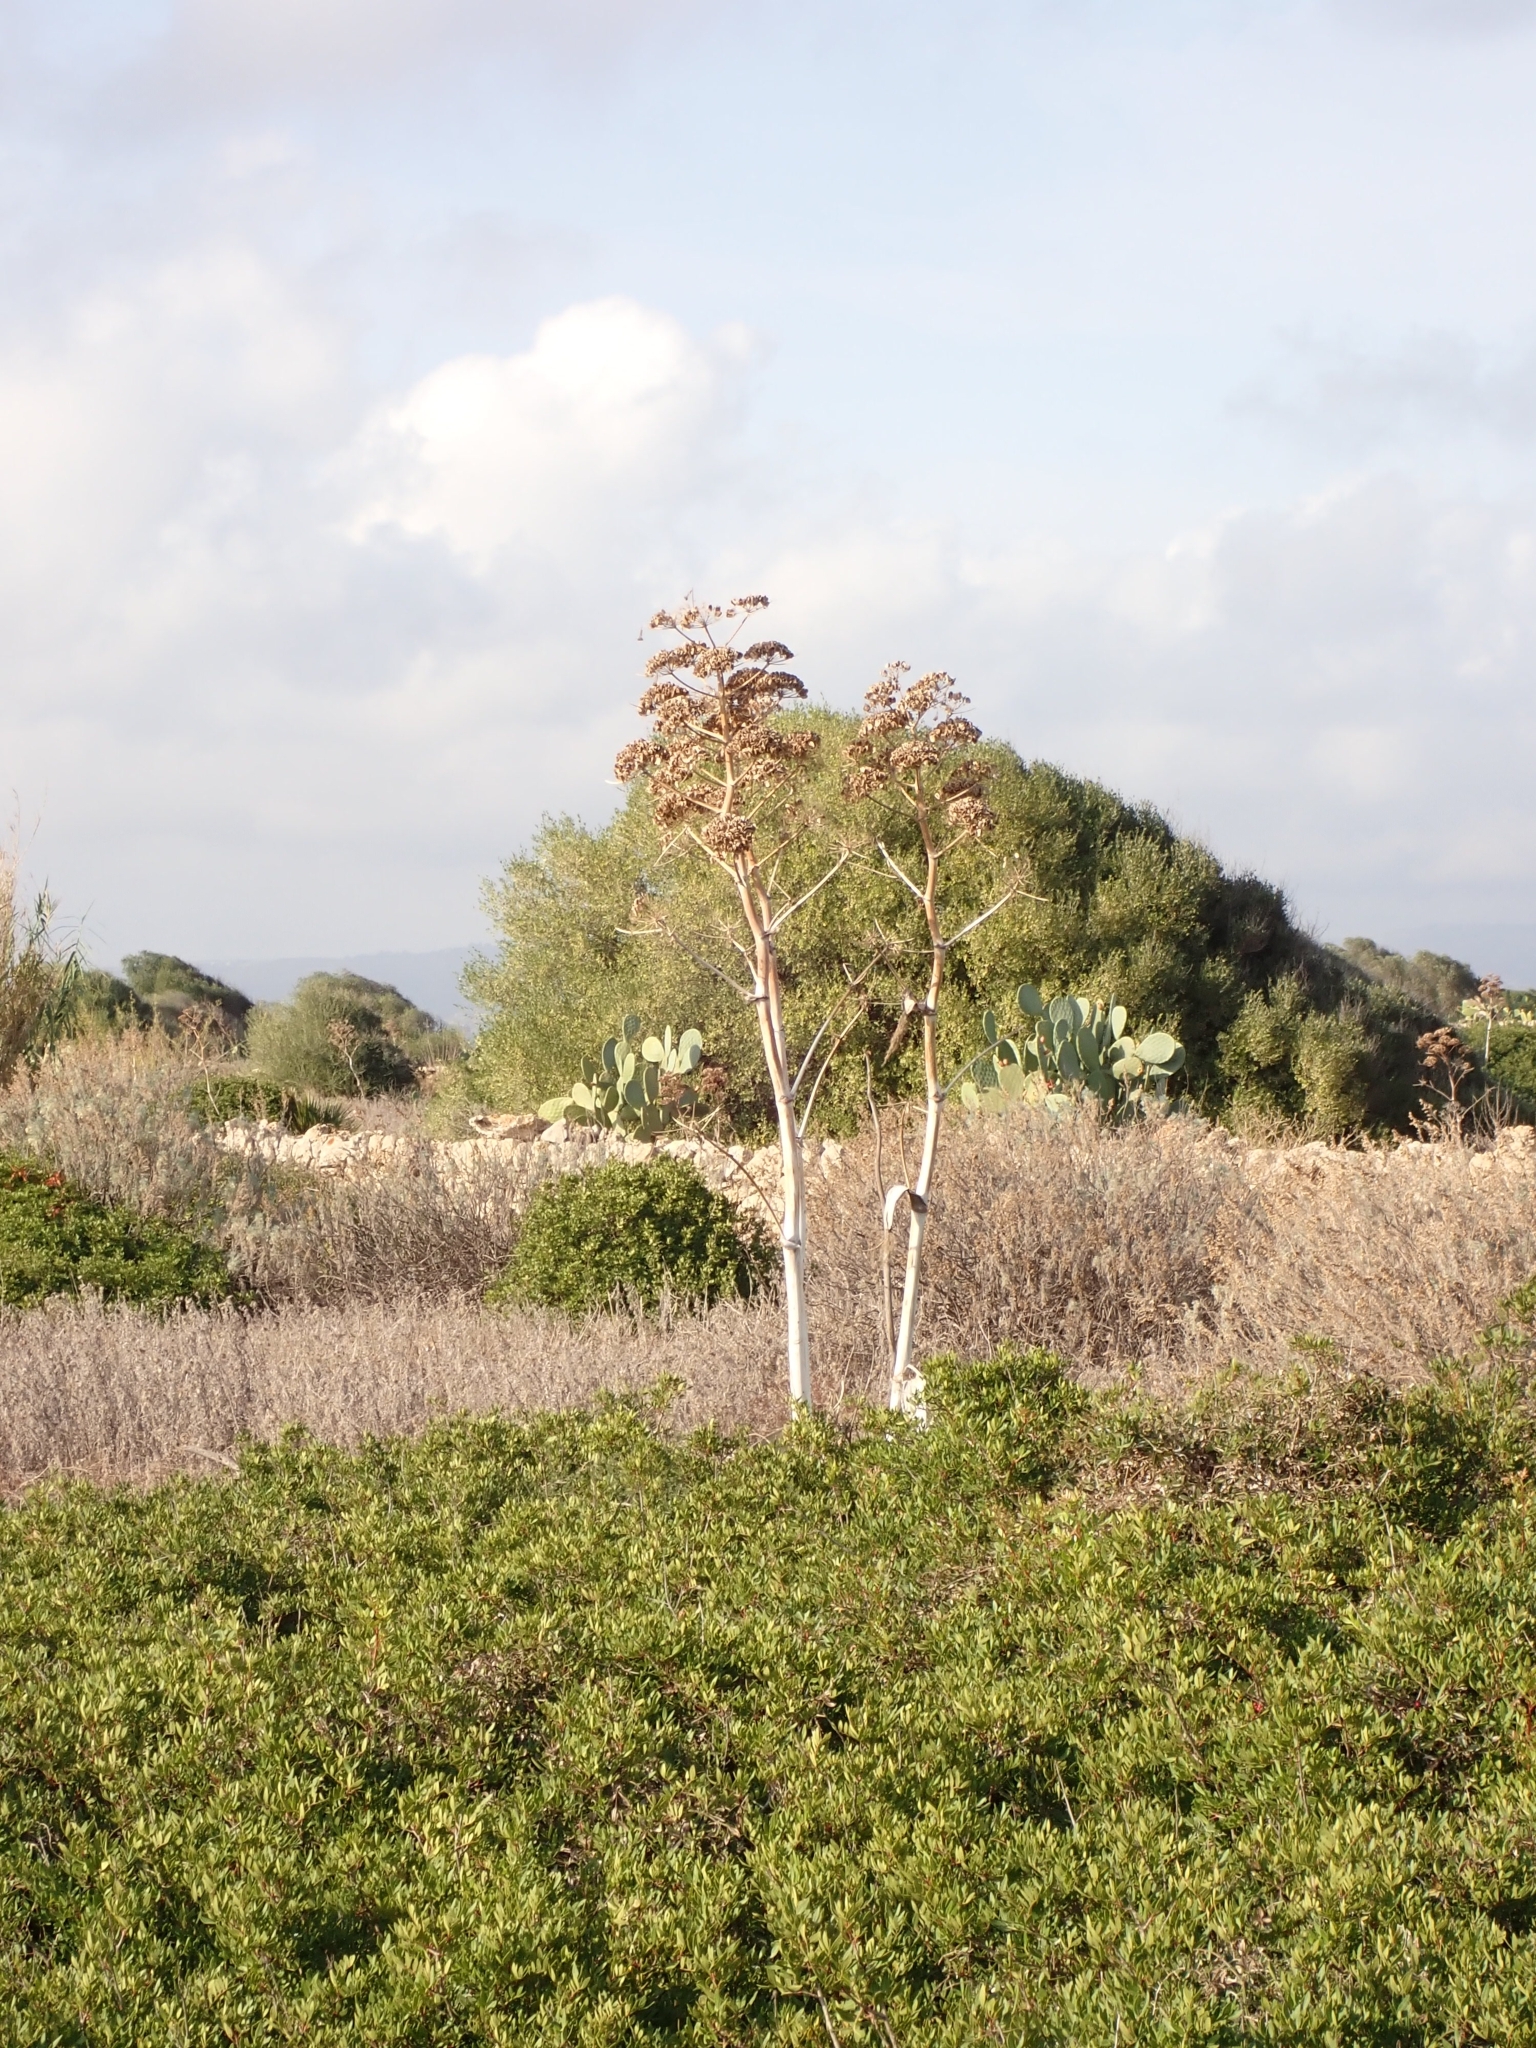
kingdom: Plantae
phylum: Tracheophyta
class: Magnoliopsida
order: Apiales
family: Apiaceae
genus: Ferula
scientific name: Ferula communis
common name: Giant fennel
